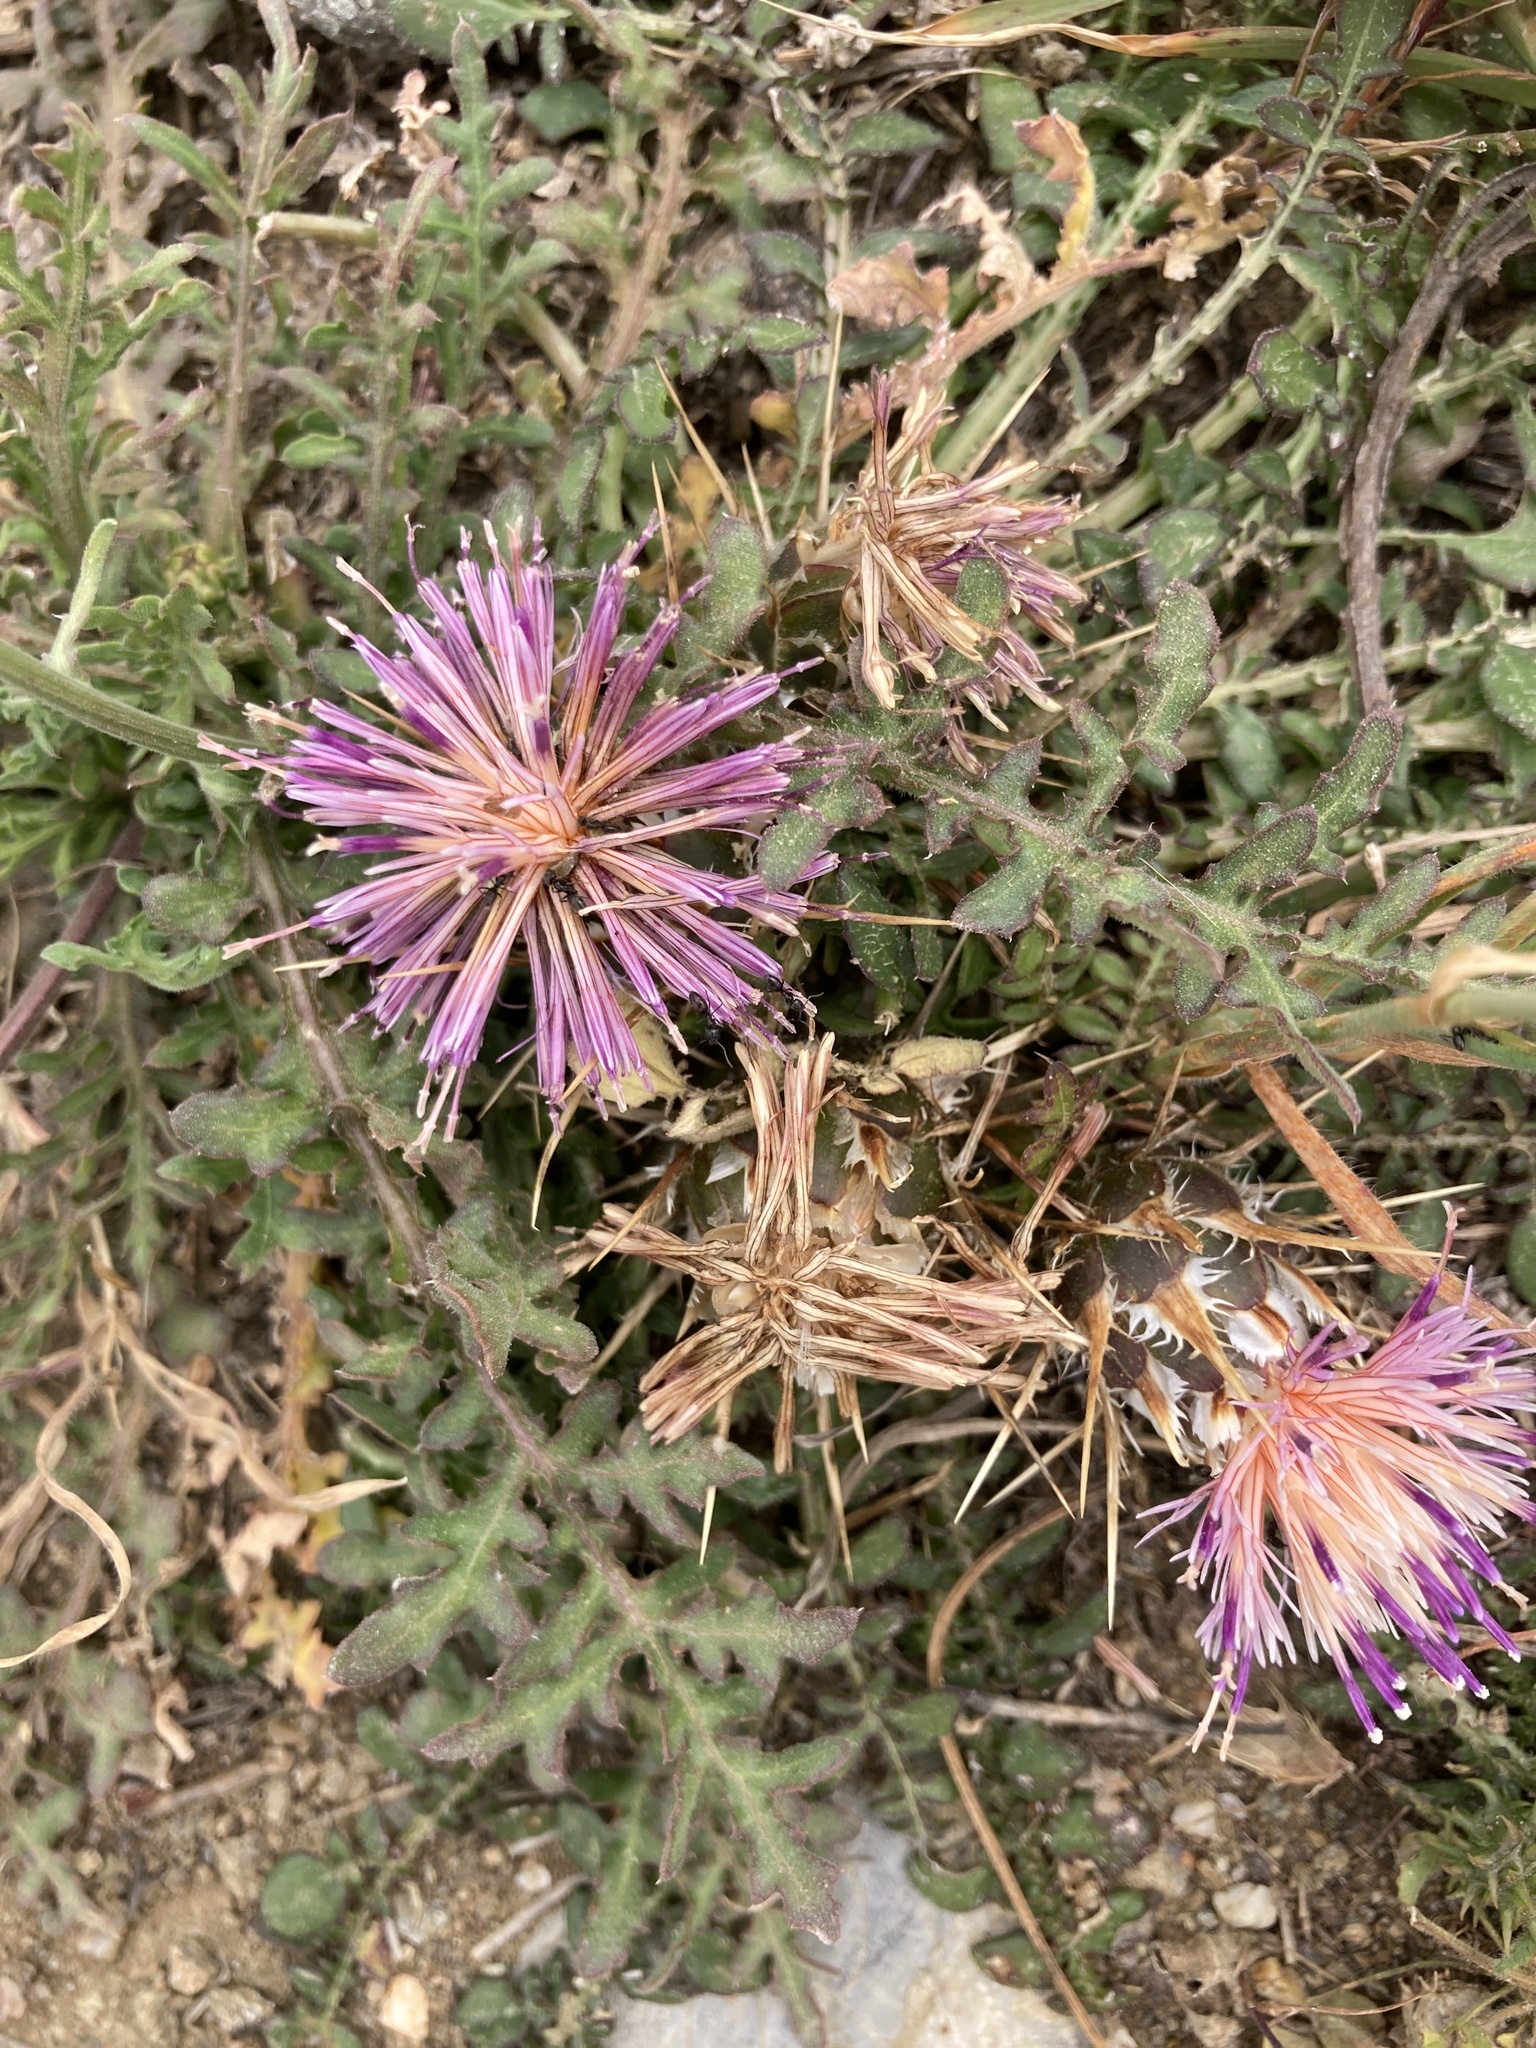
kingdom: Plantae
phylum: Tracheophyta
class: Magnoliopsida
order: Asterales
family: Asteraceae
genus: Centaurea
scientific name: Centaurea raphanina
